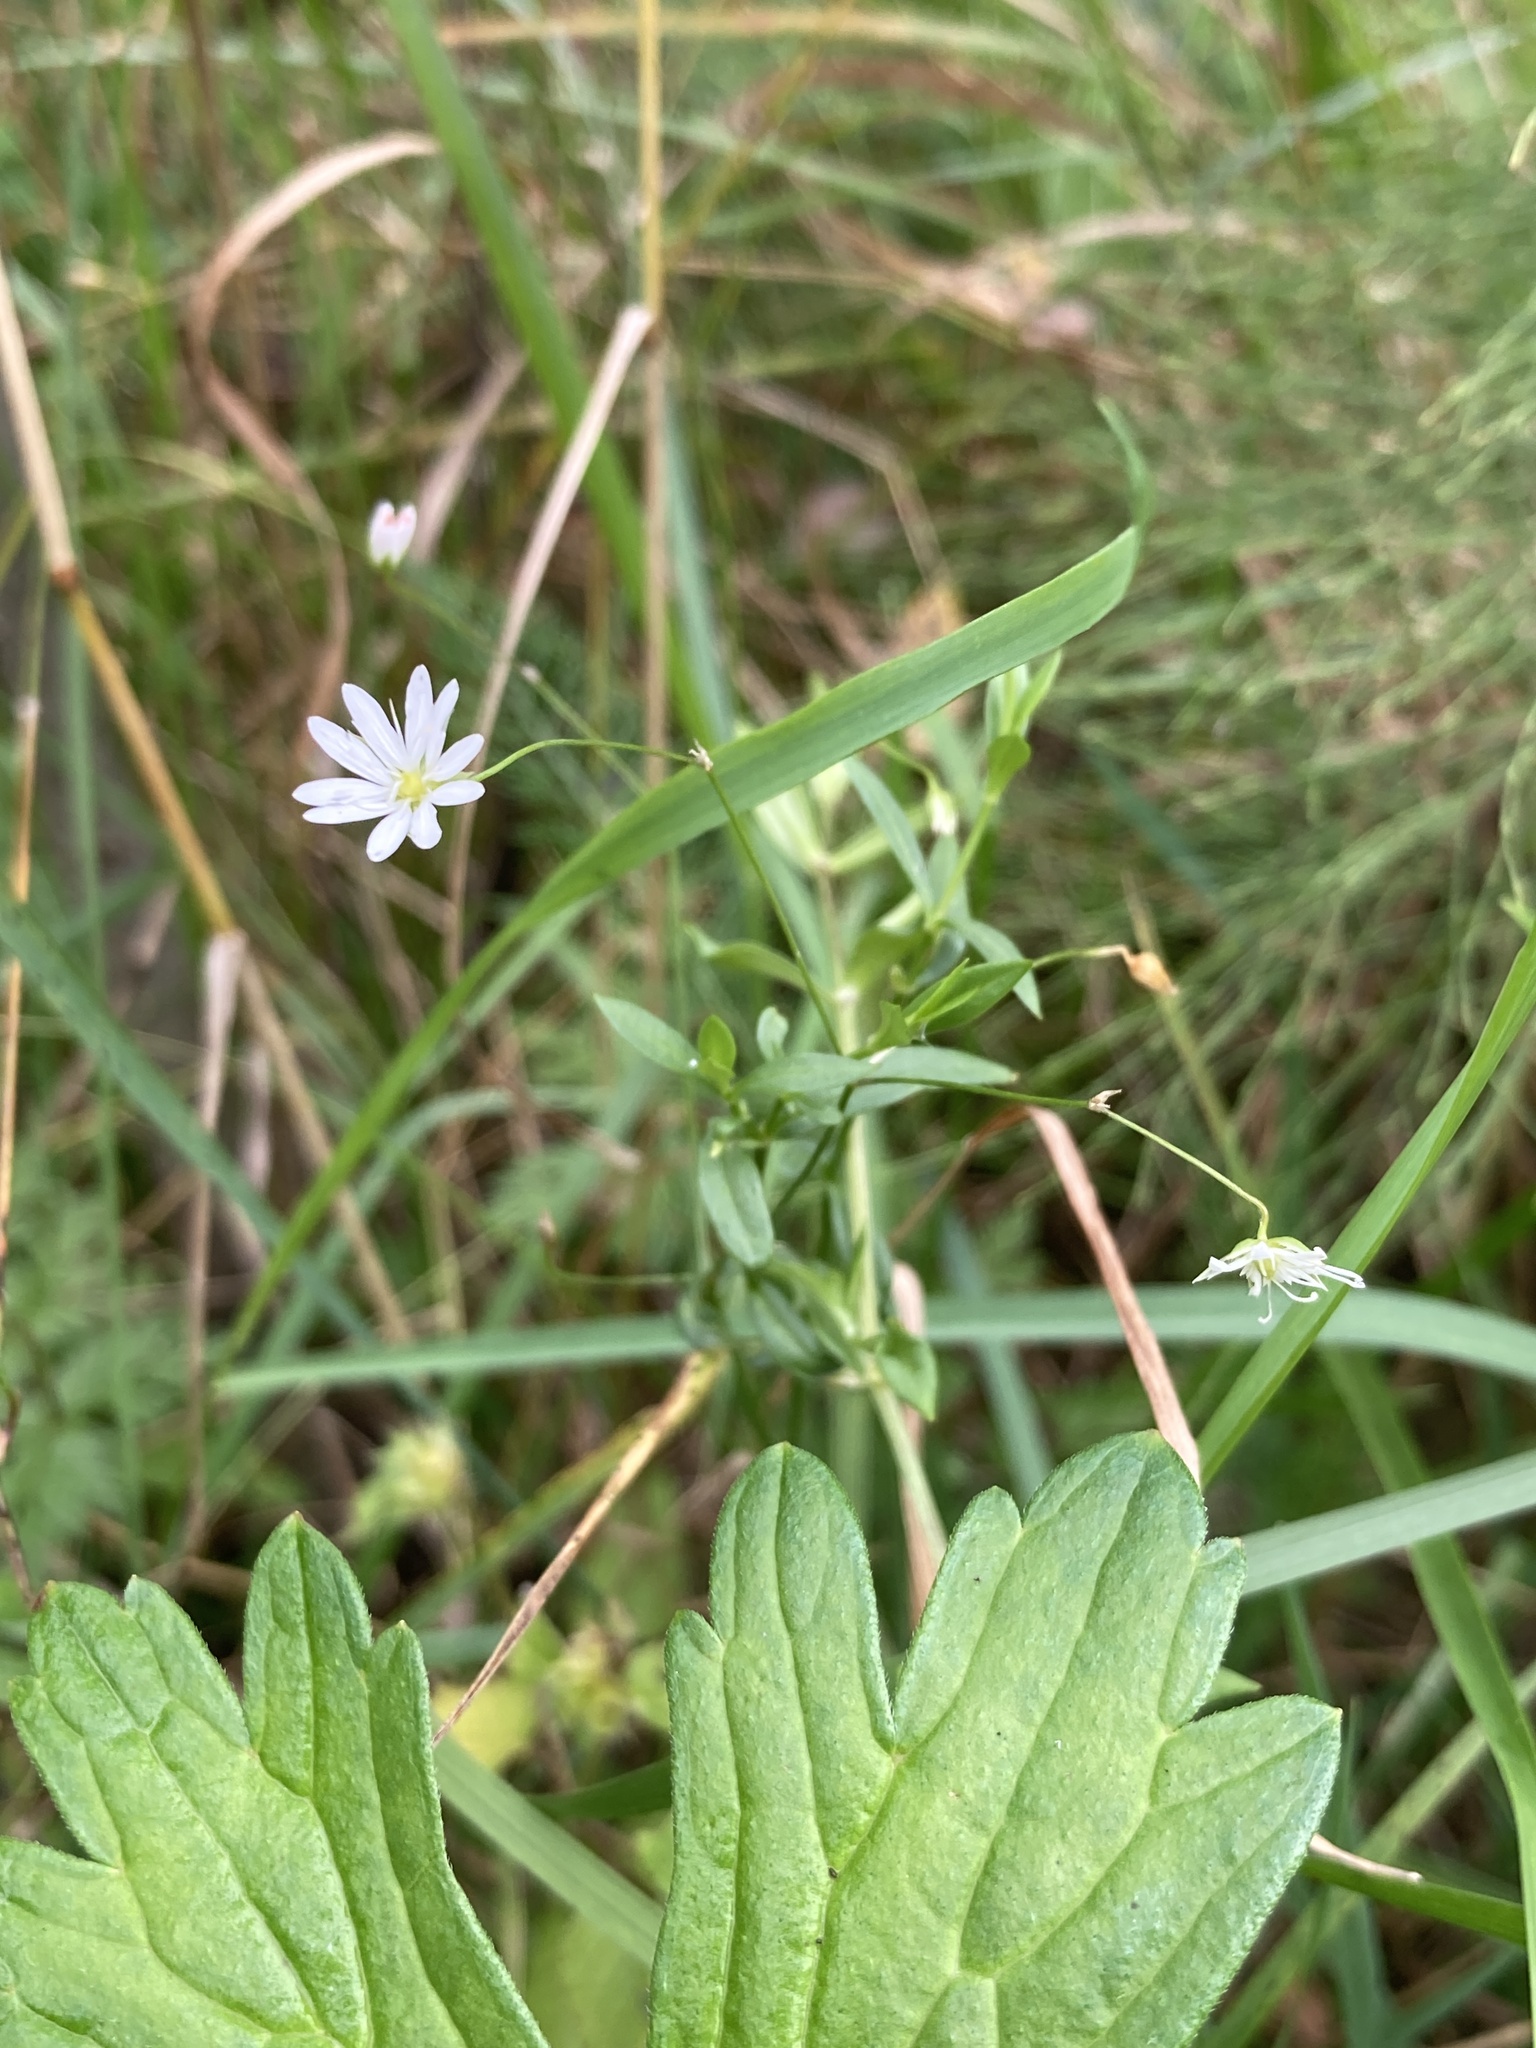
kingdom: Plantae
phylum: Tracheophyta
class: Magnoliopsida
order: Caryophyllales
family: Caryophyllaceae
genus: Stellaria
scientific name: Stellaria graminea
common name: Grass-like starwort
